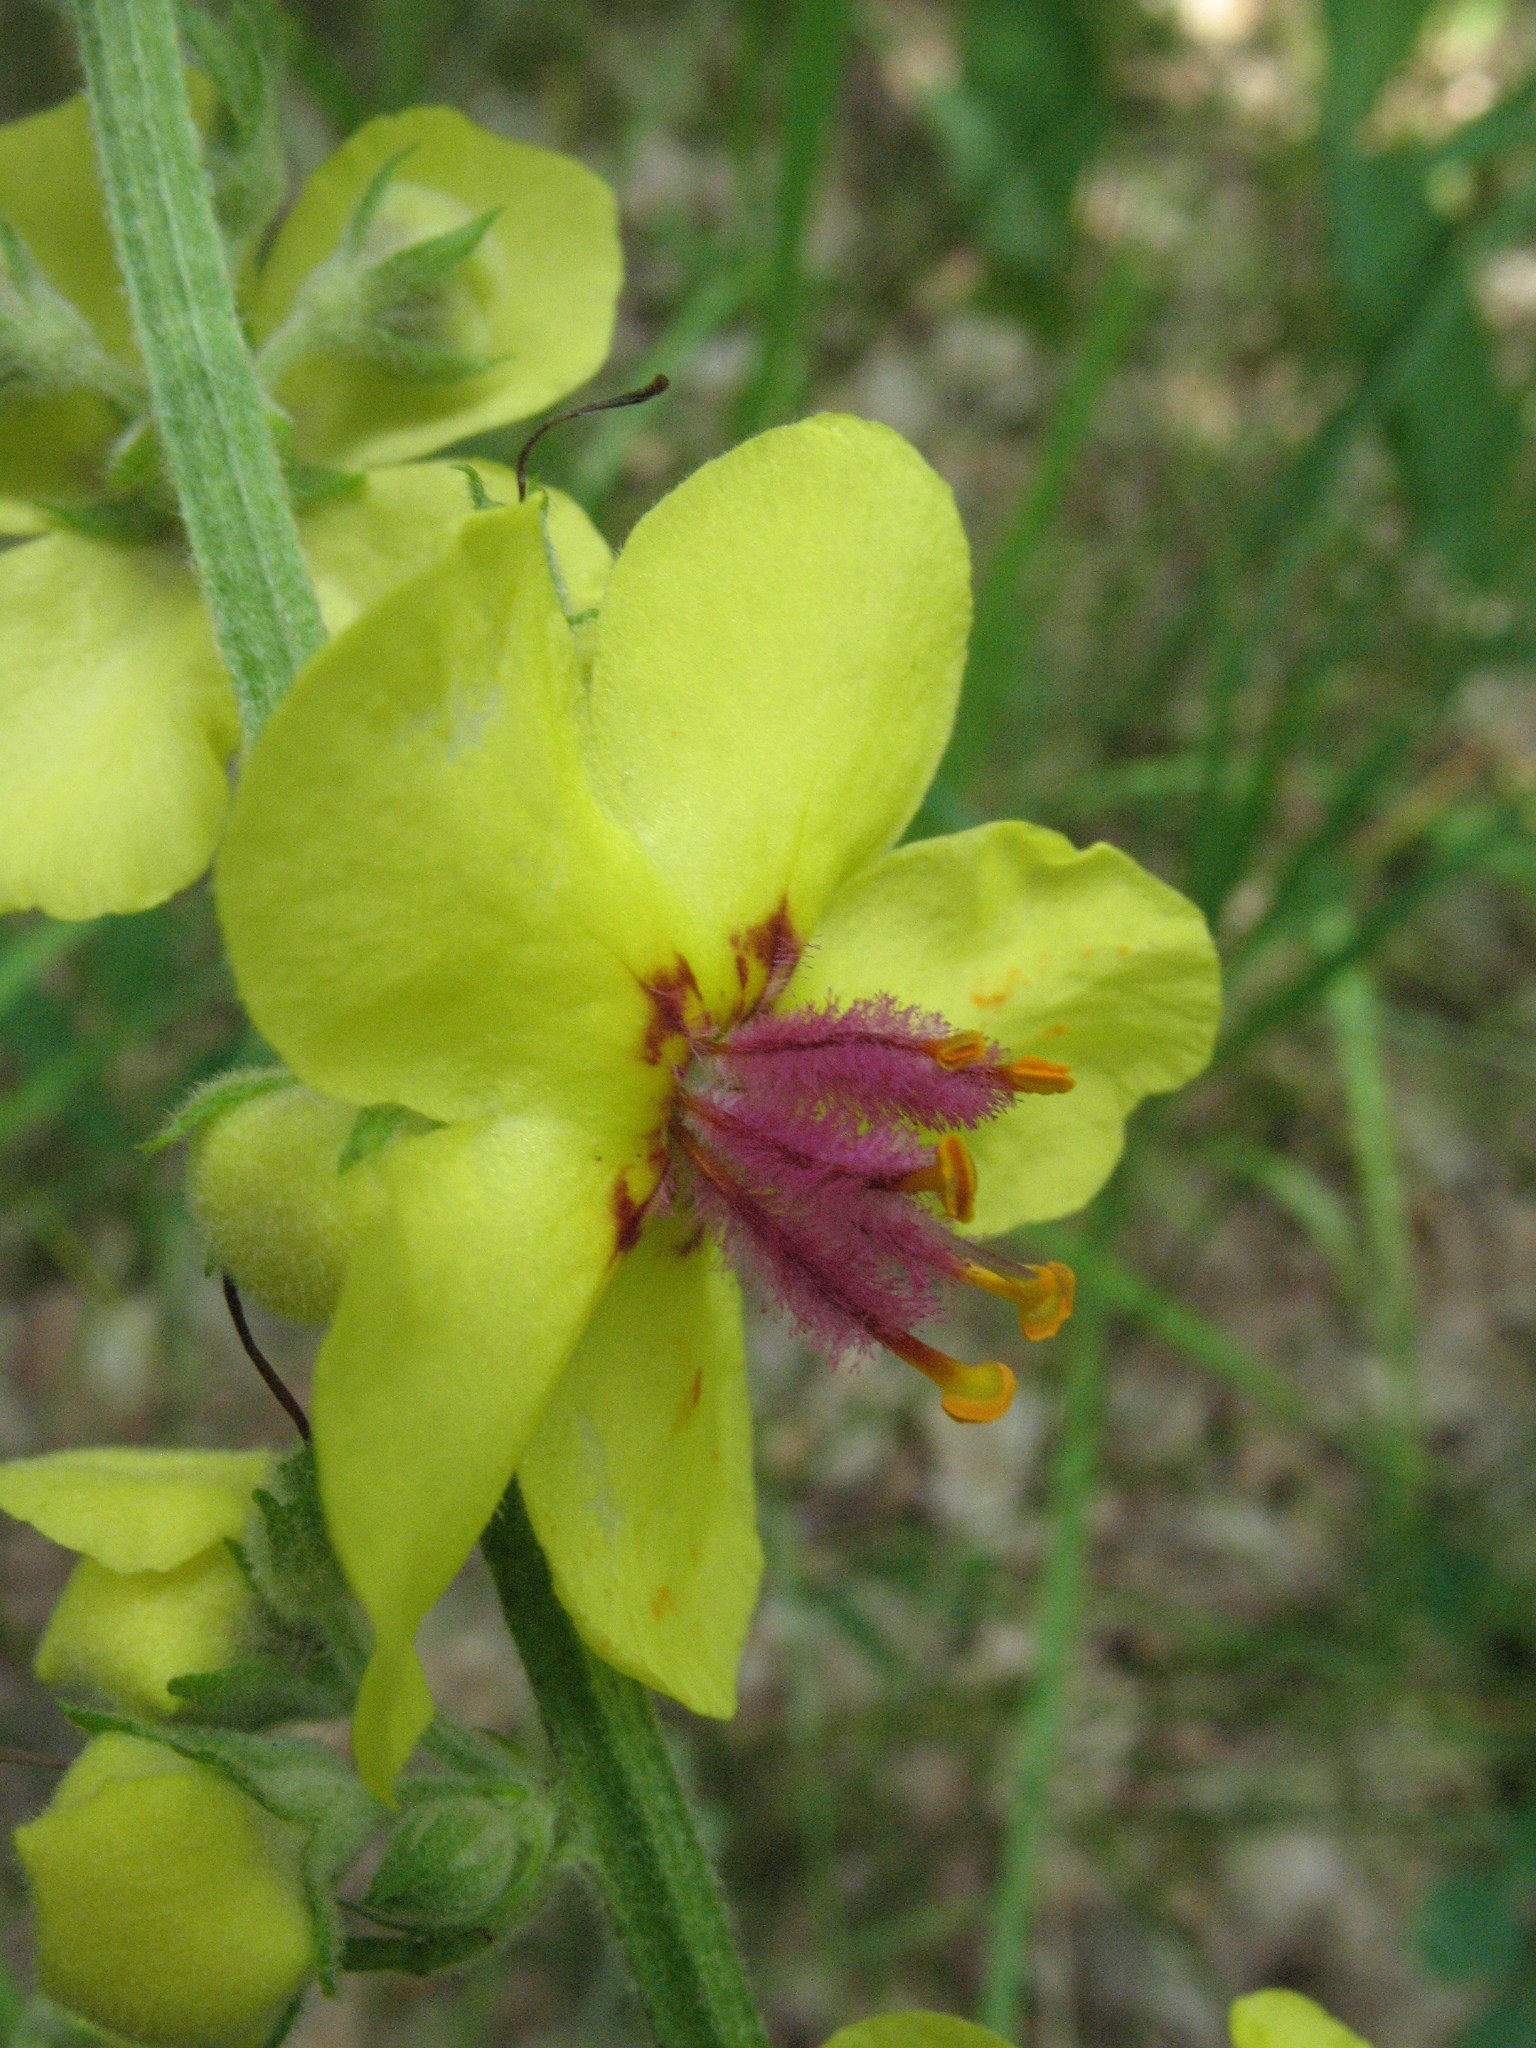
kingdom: Plantae
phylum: Tracheophyta
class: Magnoliopsida
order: Lamiales
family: Scrophulariaceae
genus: Verbascum
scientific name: Verbascum chaixii
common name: Nettle-leaved mullein
